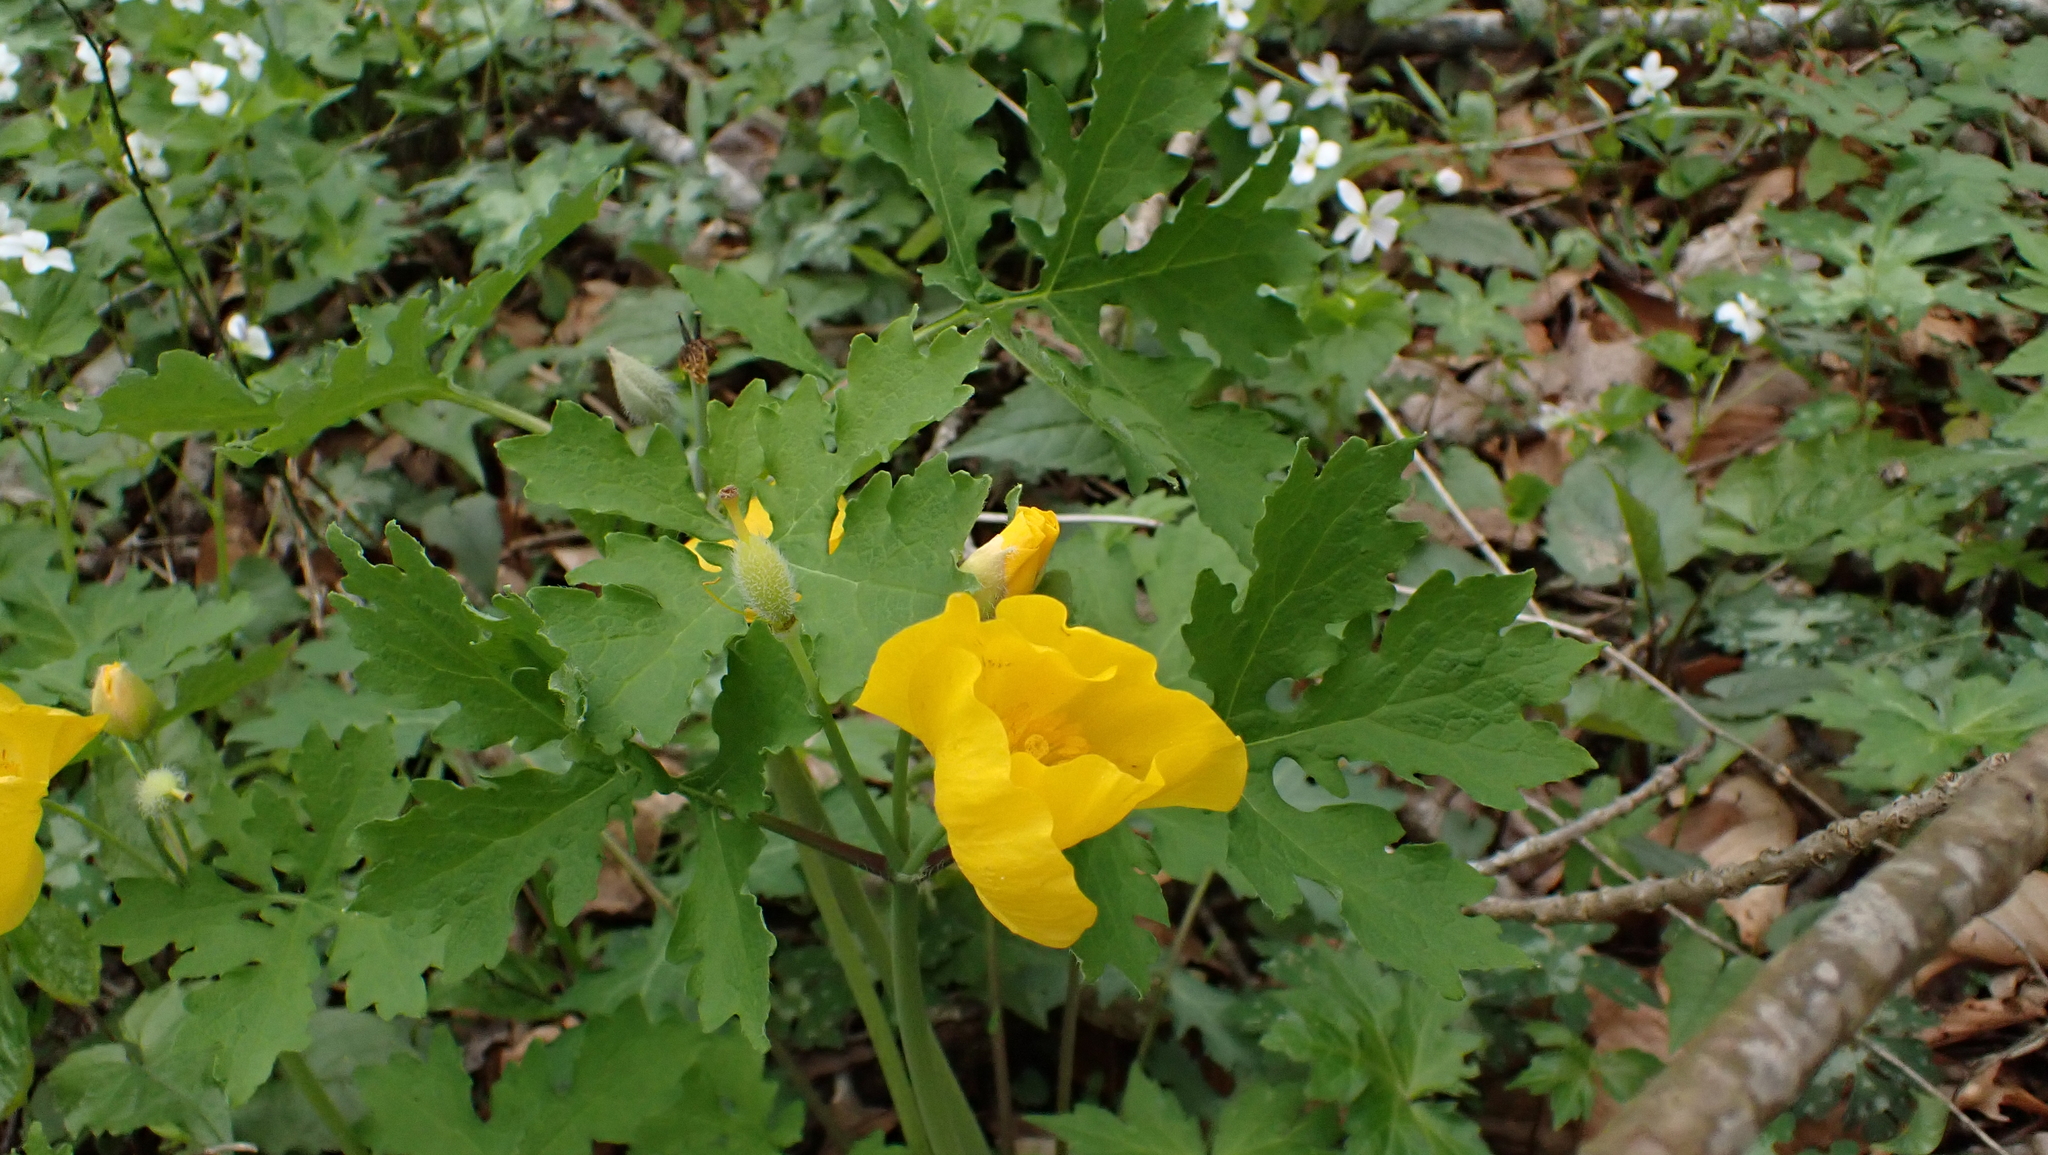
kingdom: Plantae
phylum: Tracheophyta
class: Magnoliopsida
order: Ranunculales
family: Papaveraceae
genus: Stylophorum
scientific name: Stylophorum diphyllum
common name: Celandine poppy
